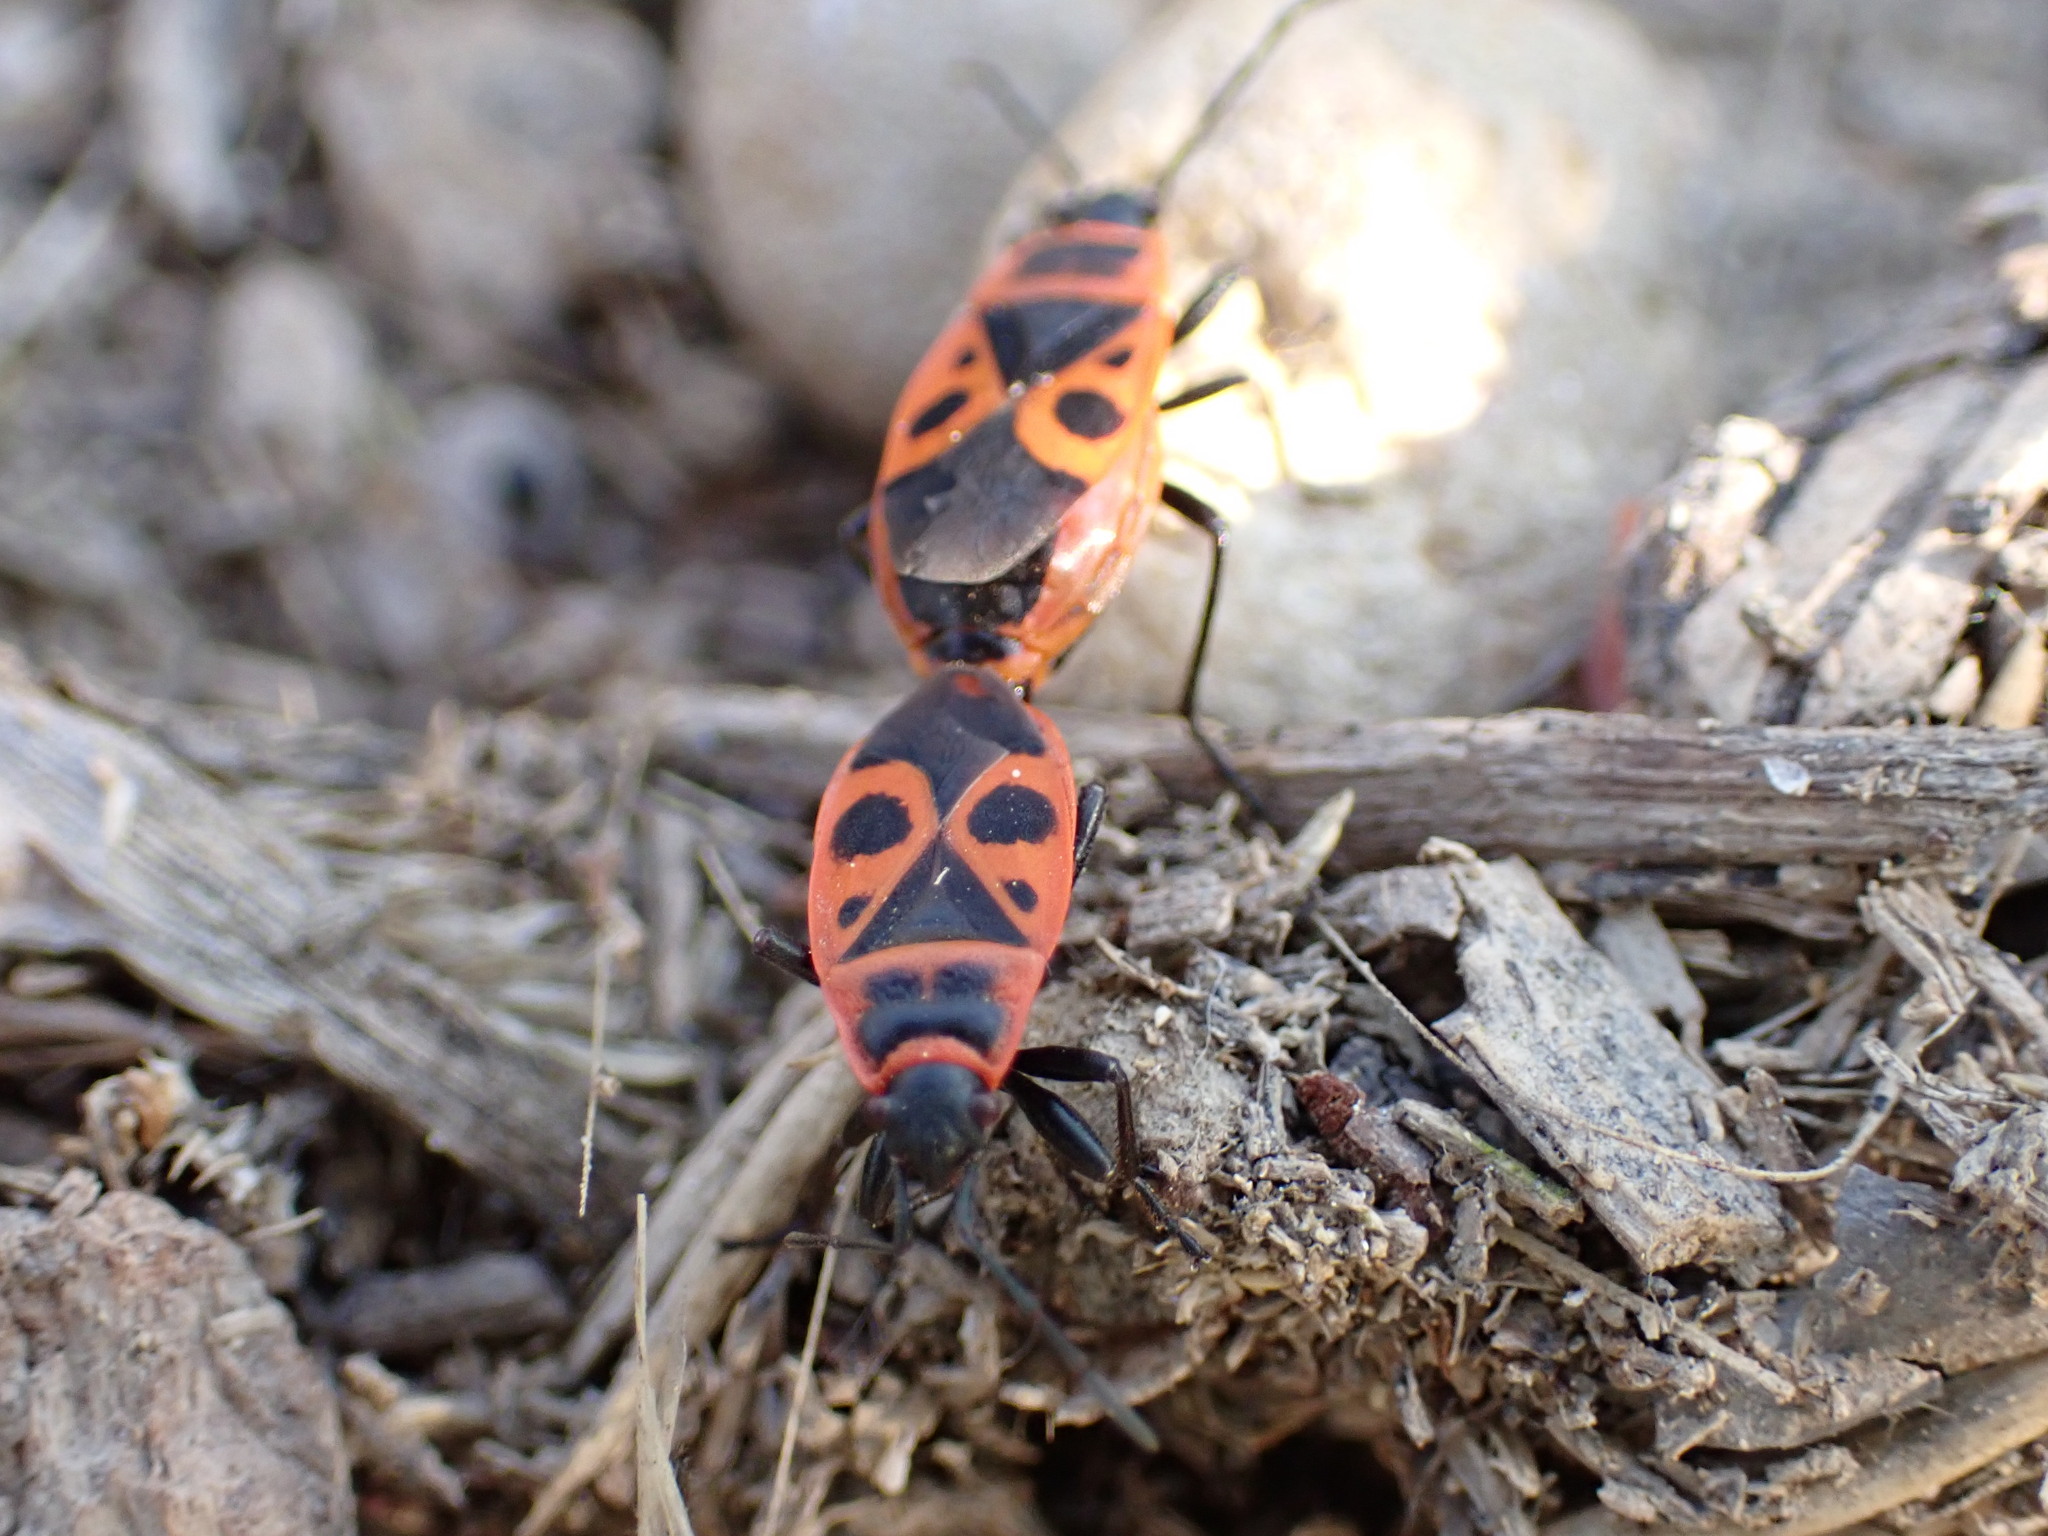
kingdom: Animalia
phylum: Arthropoda
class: Insecta
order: Hemiptera
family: Pyrrhocoridae
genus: Pyrrhocoris
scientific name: Pyrrhocoris apterus
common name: Firebug
